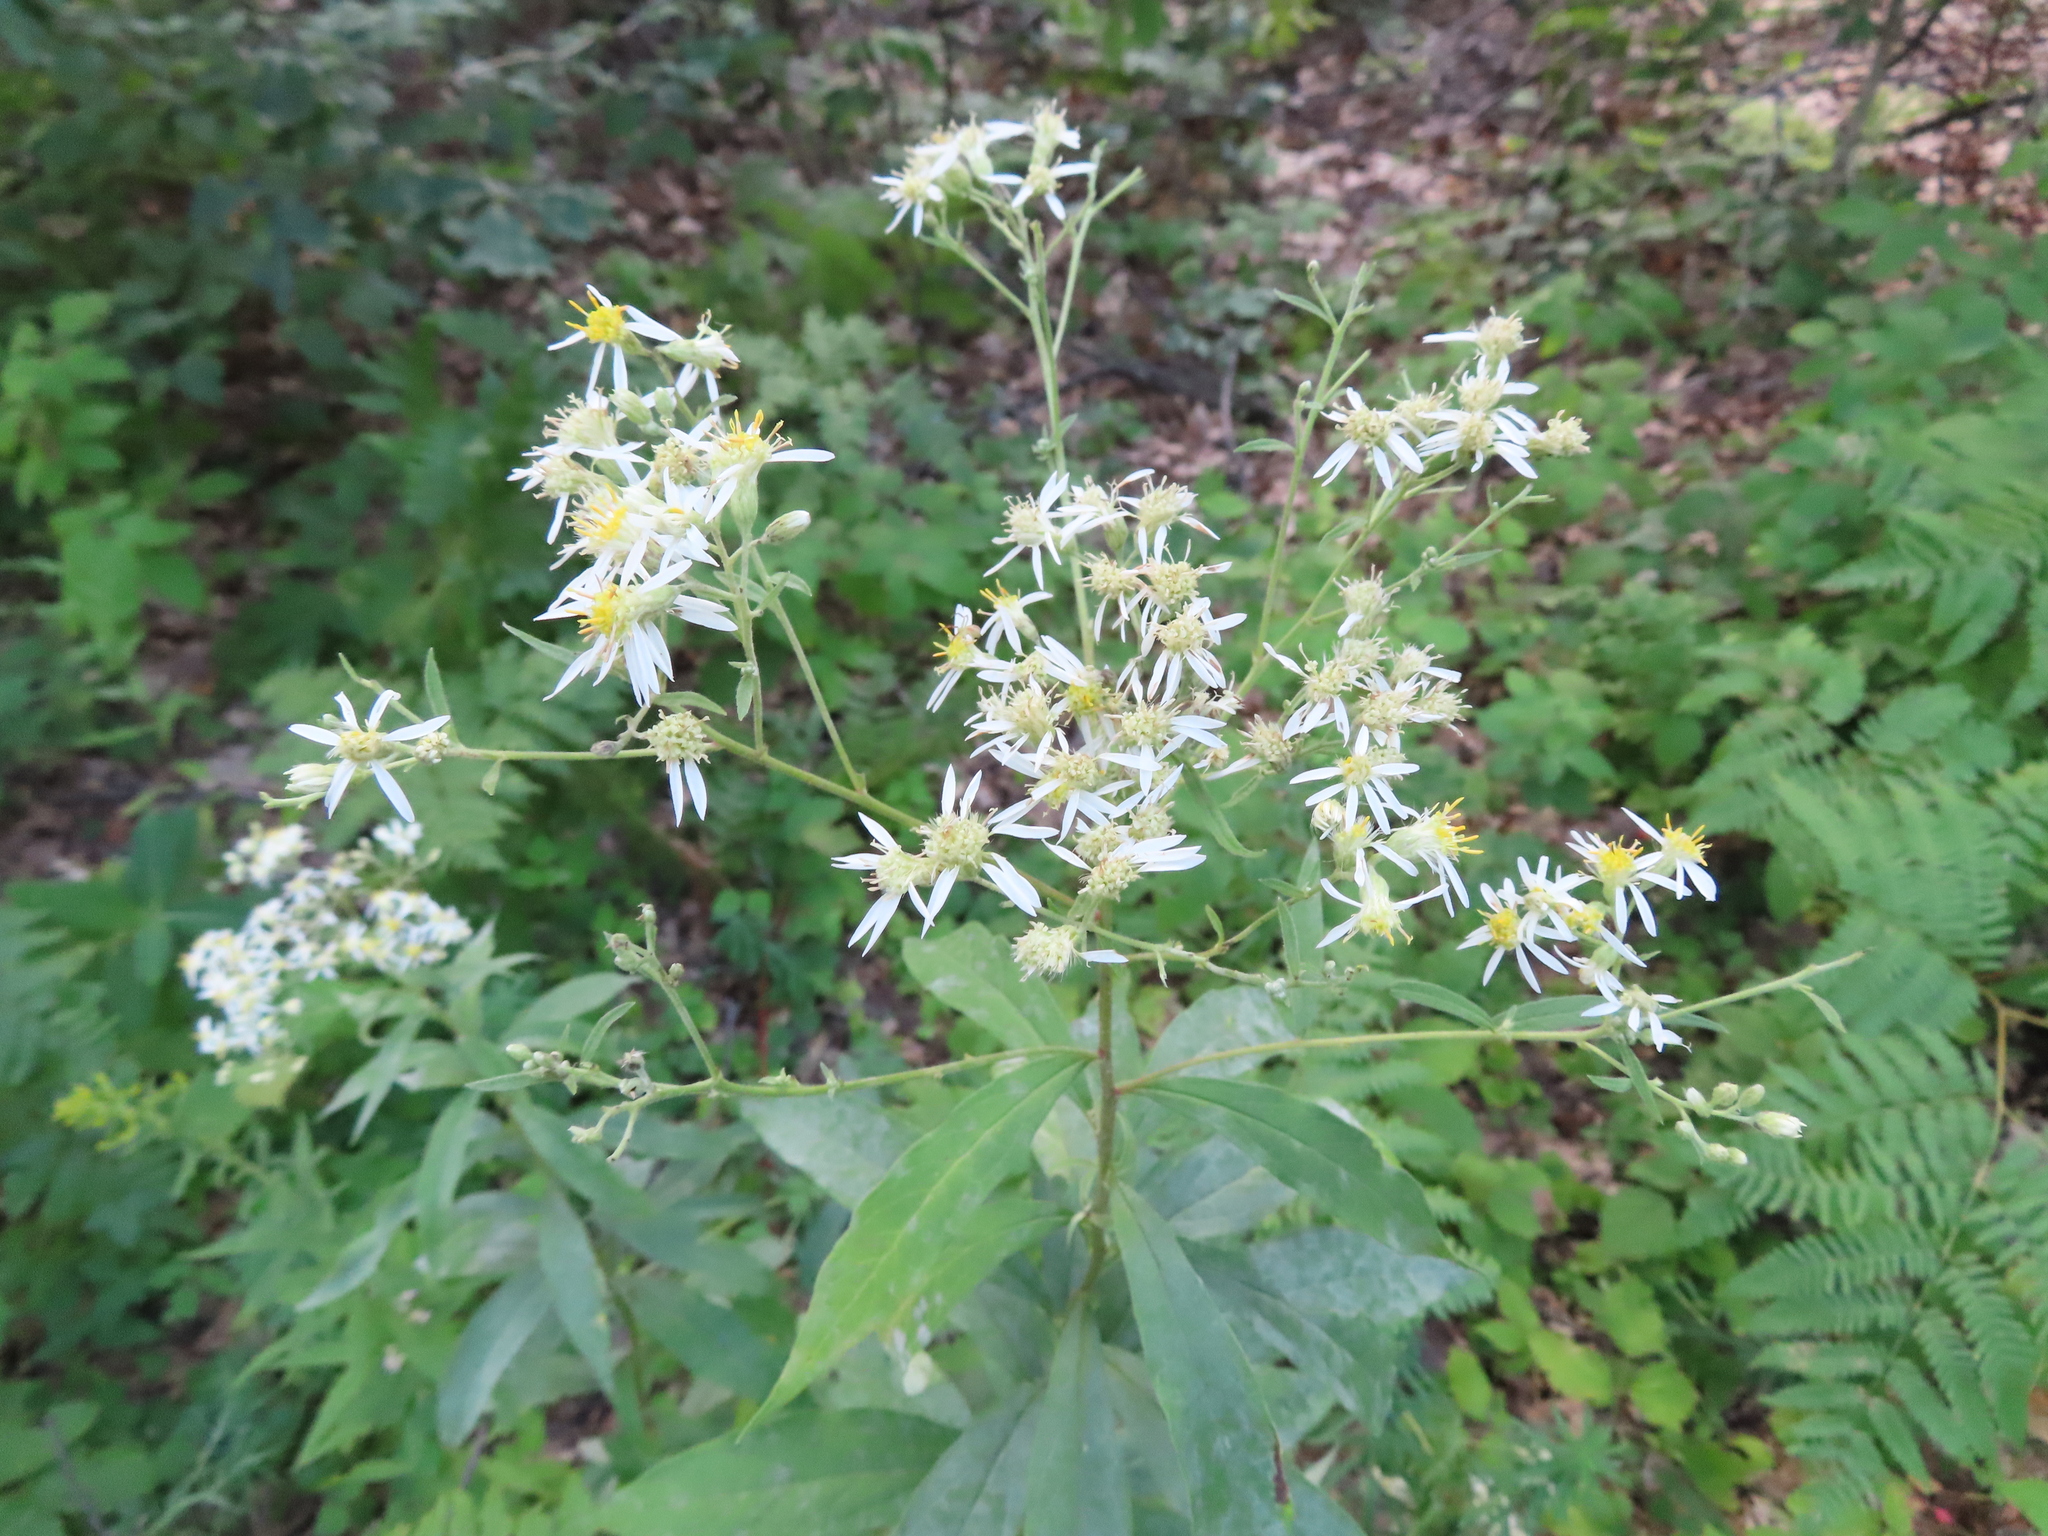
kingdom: Plantae
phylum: Tracheophyta
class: Magnoliopsida
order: Asterales
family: Asteraceae
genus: Doellingeria
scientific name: Doellingeria umbellata
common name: Flat-top white aster
